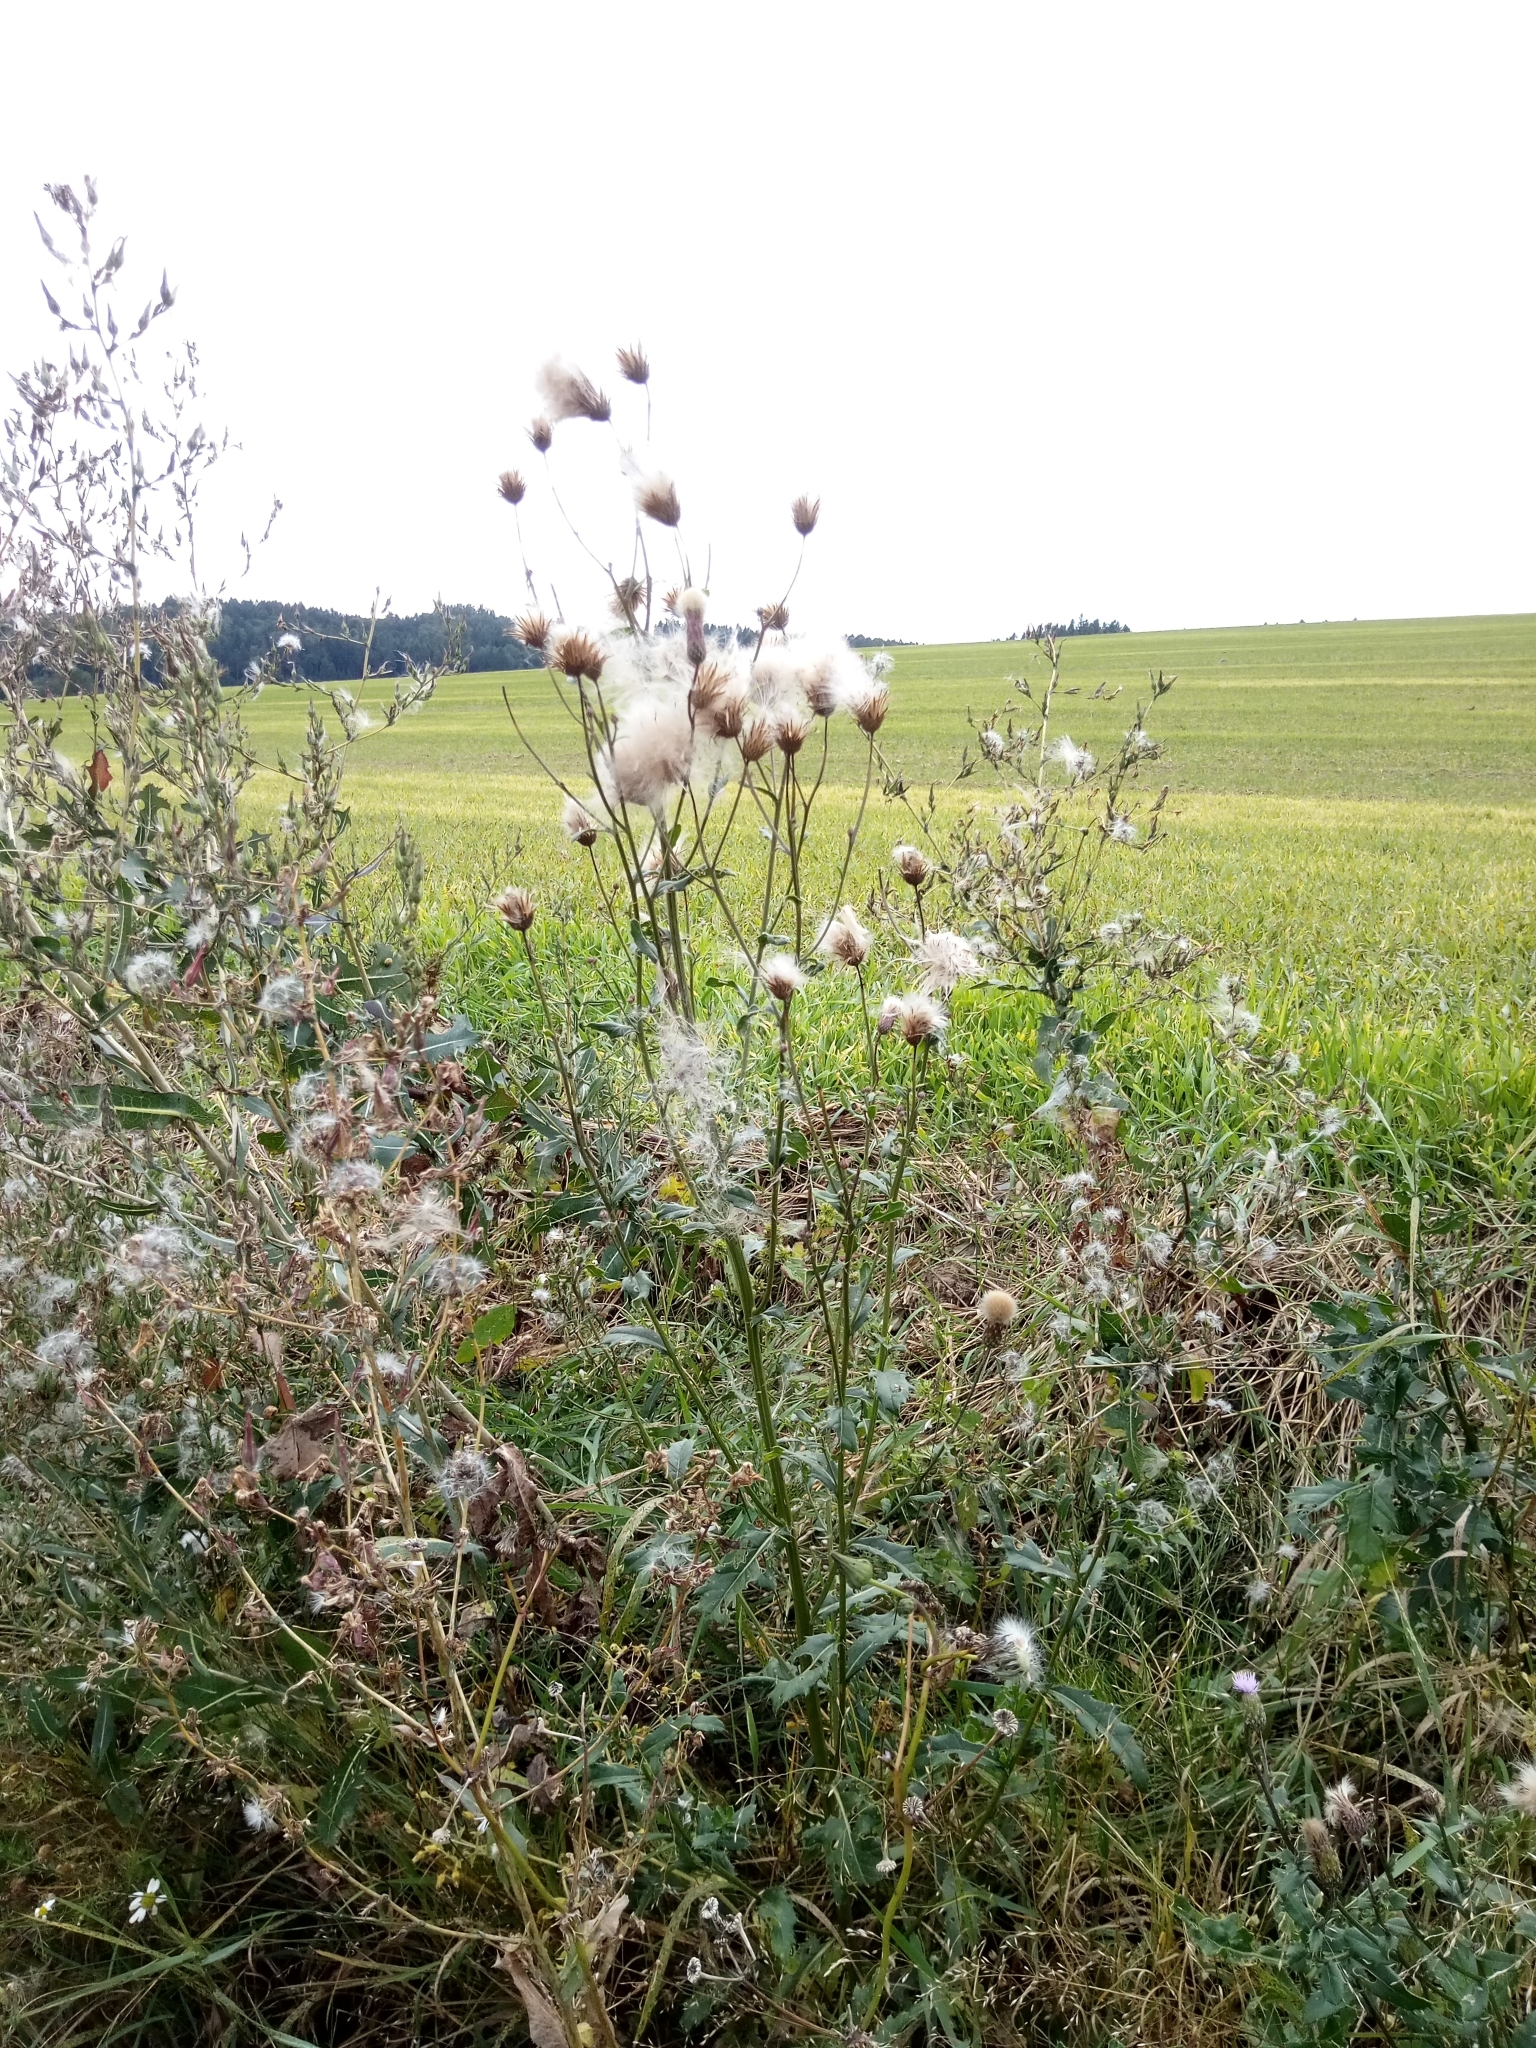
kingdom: Plantae
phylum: Tracheophyta
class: Magnoliopsida
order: Asterales
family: Asteraceae
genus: Cirsium
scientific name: Cirsium arvense
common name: Creeping thistle
